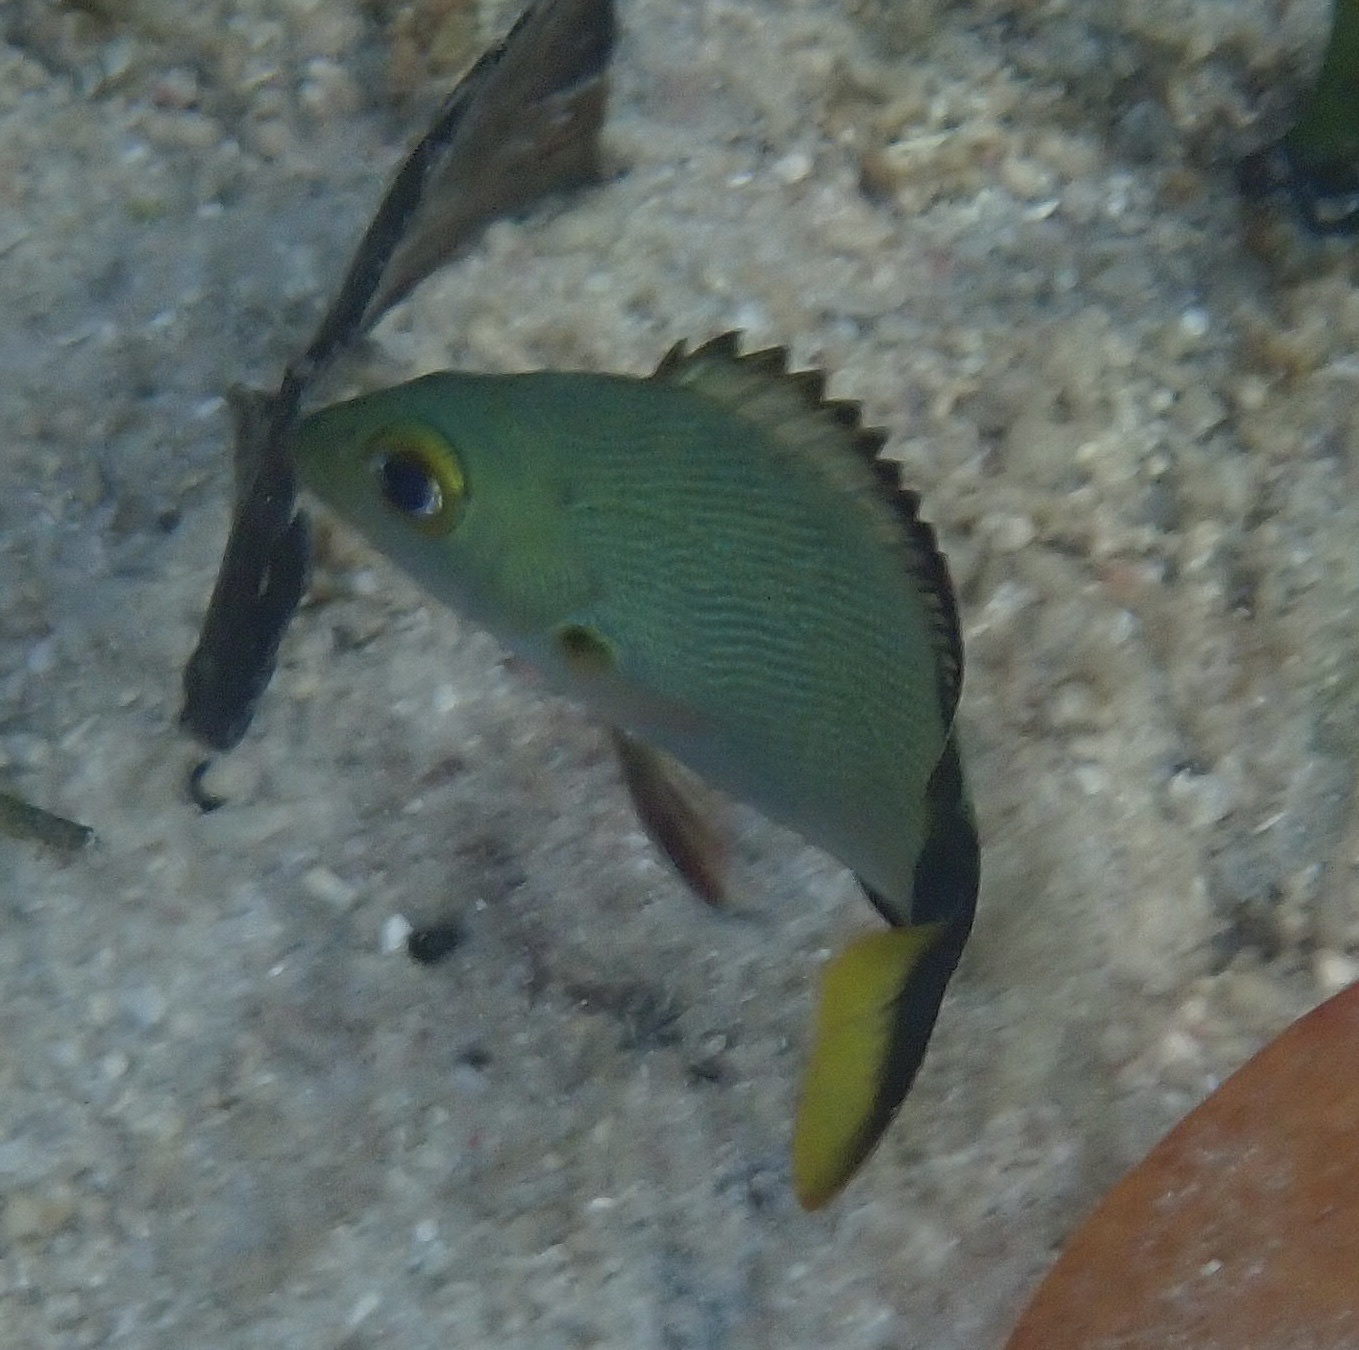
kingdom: Animalia
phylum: Chordata
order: Perciformes
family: Lutjanidae
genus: Lutjanus
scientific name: Lutjanus gibbus
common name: Humpback snapper
